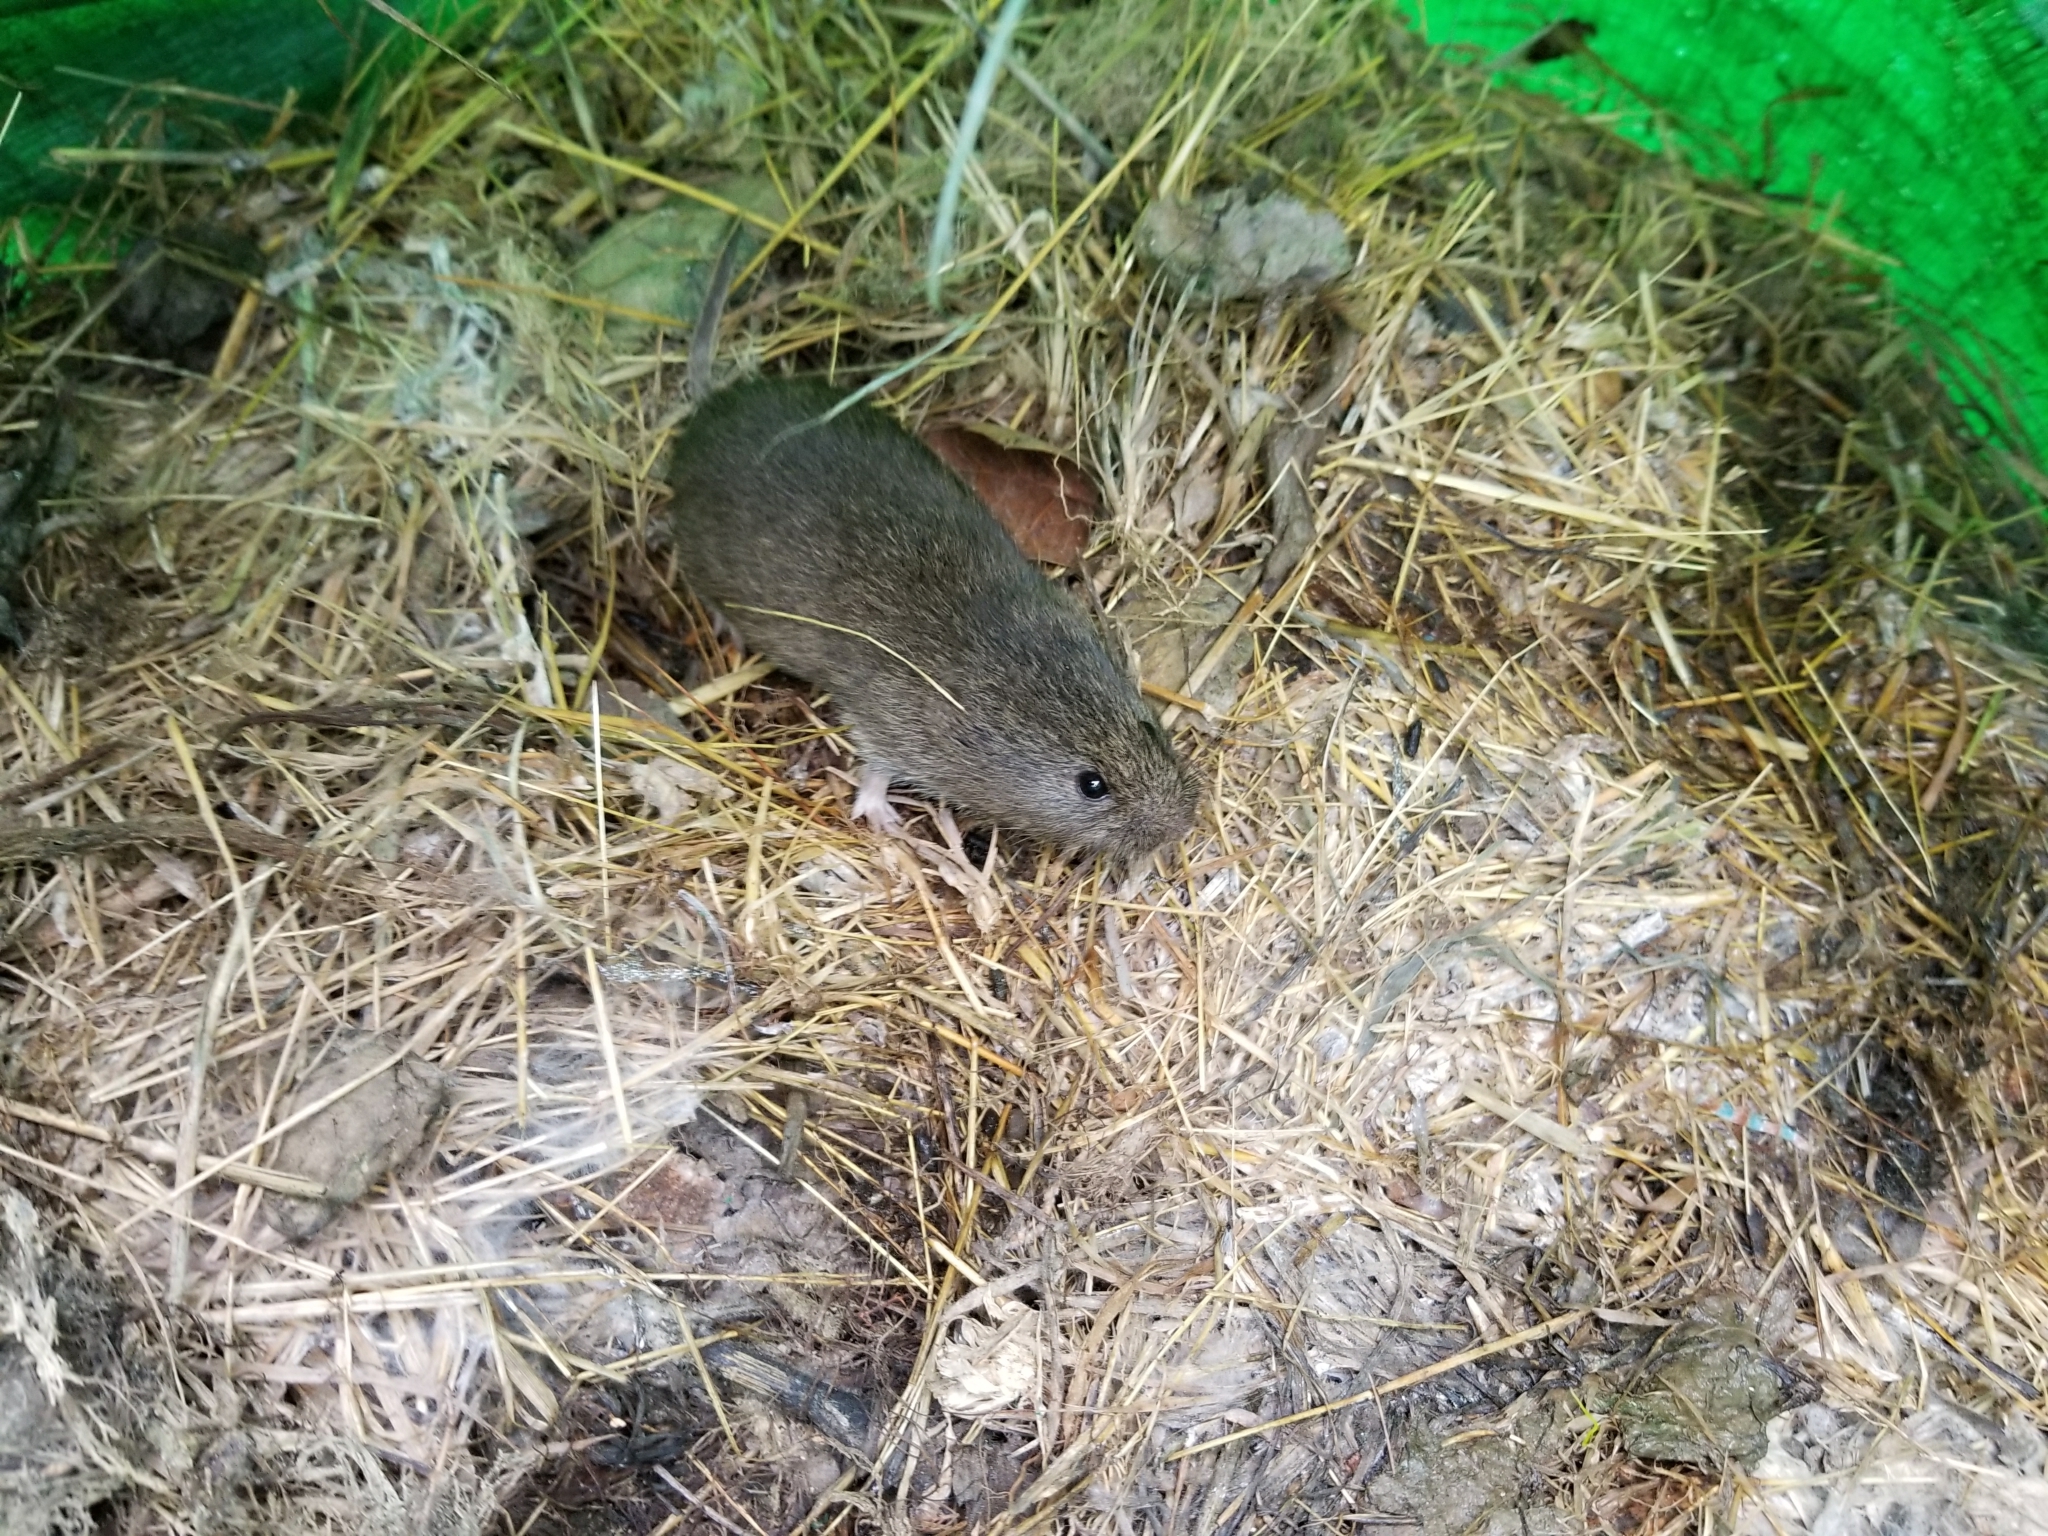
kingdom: Animalia
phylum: Chordata
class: Mammalia
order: Rodentia
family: Cricetidae
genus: Microtus
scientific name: Microtus californicus
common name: California vole
